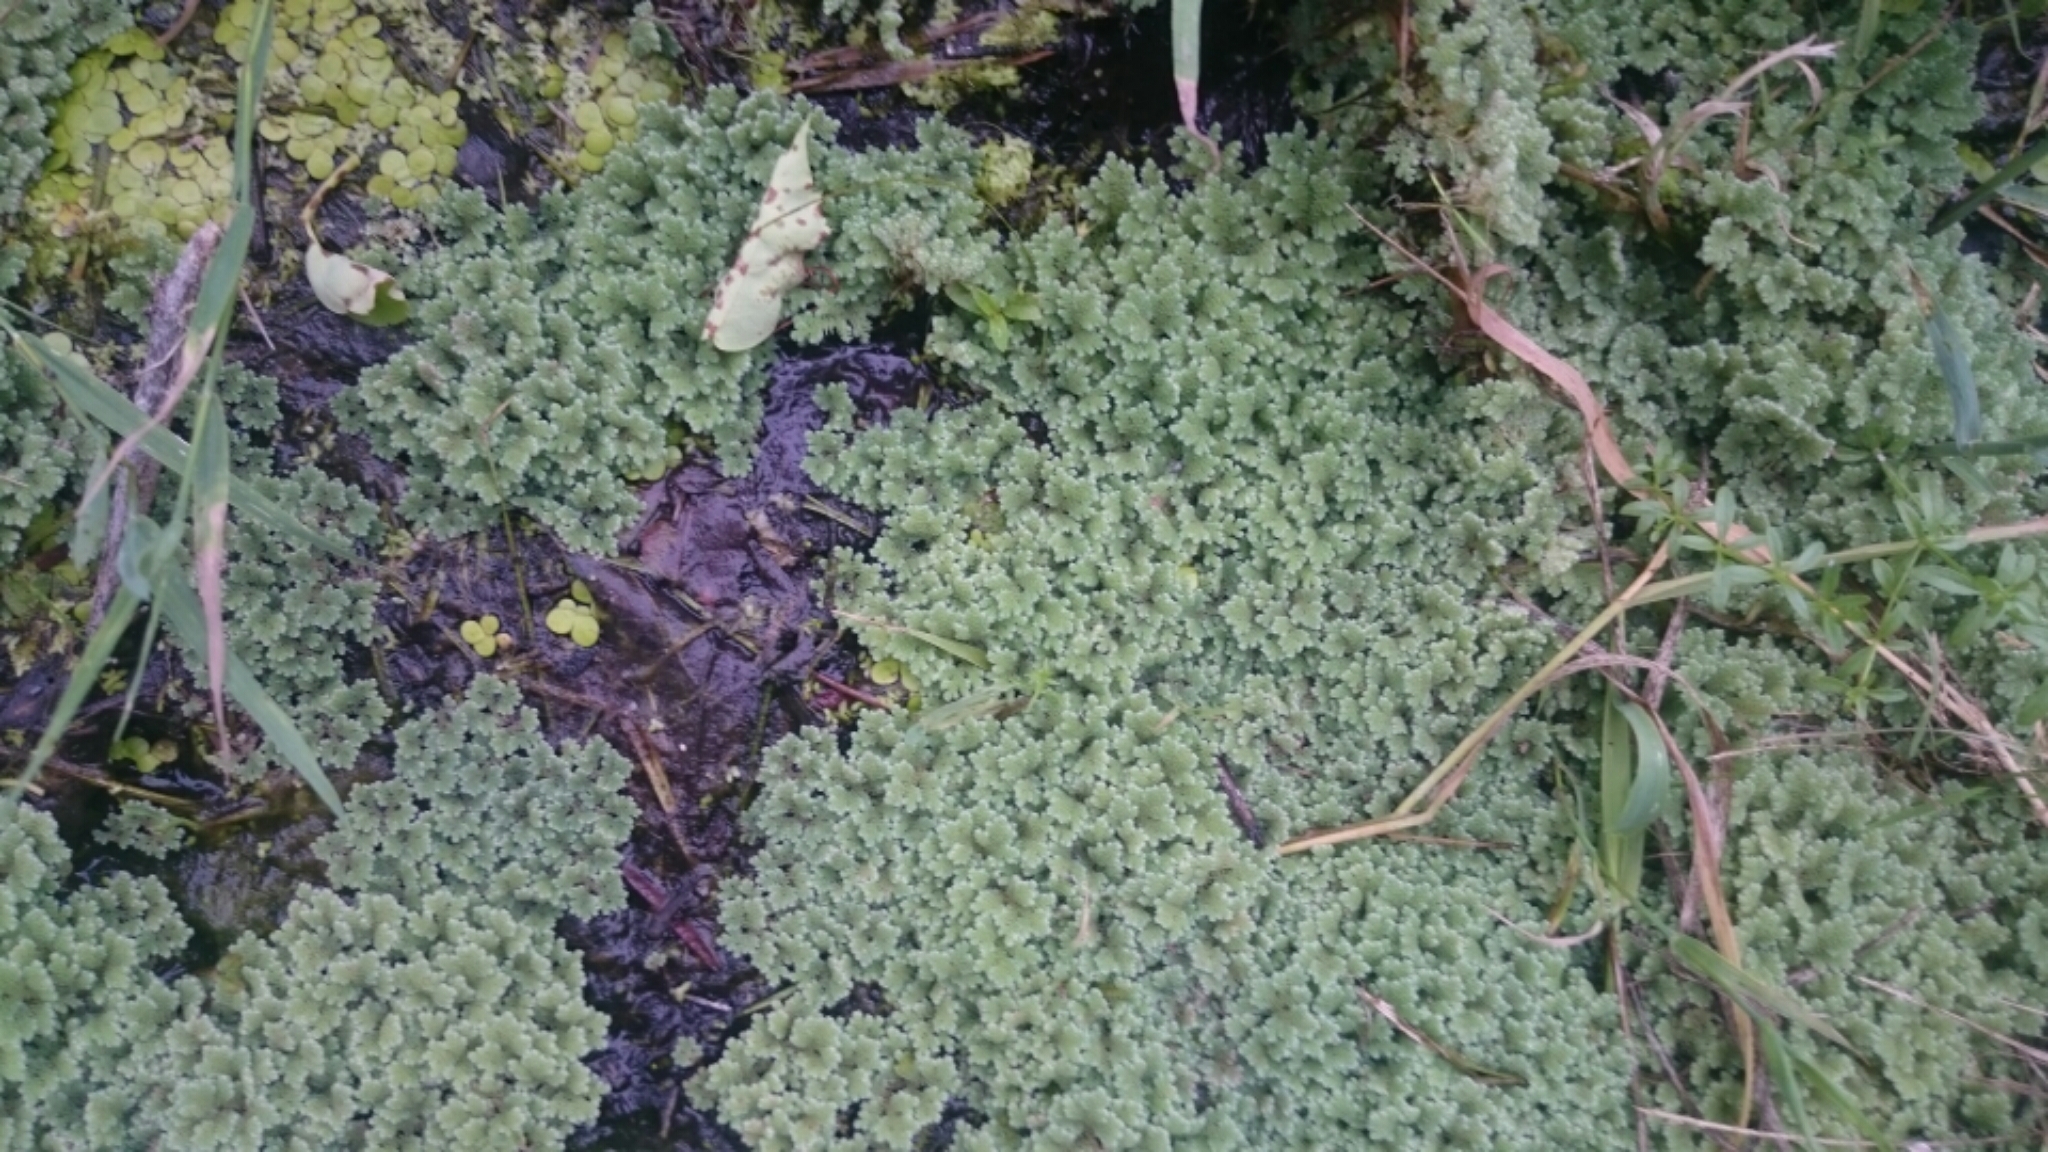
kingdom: Plantae
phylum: Tracheophyta
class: Polypodiopsida
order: Salviniales
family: Salviniaceae
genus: Azolla
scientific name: Azolla filiculoides
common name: Water fern
